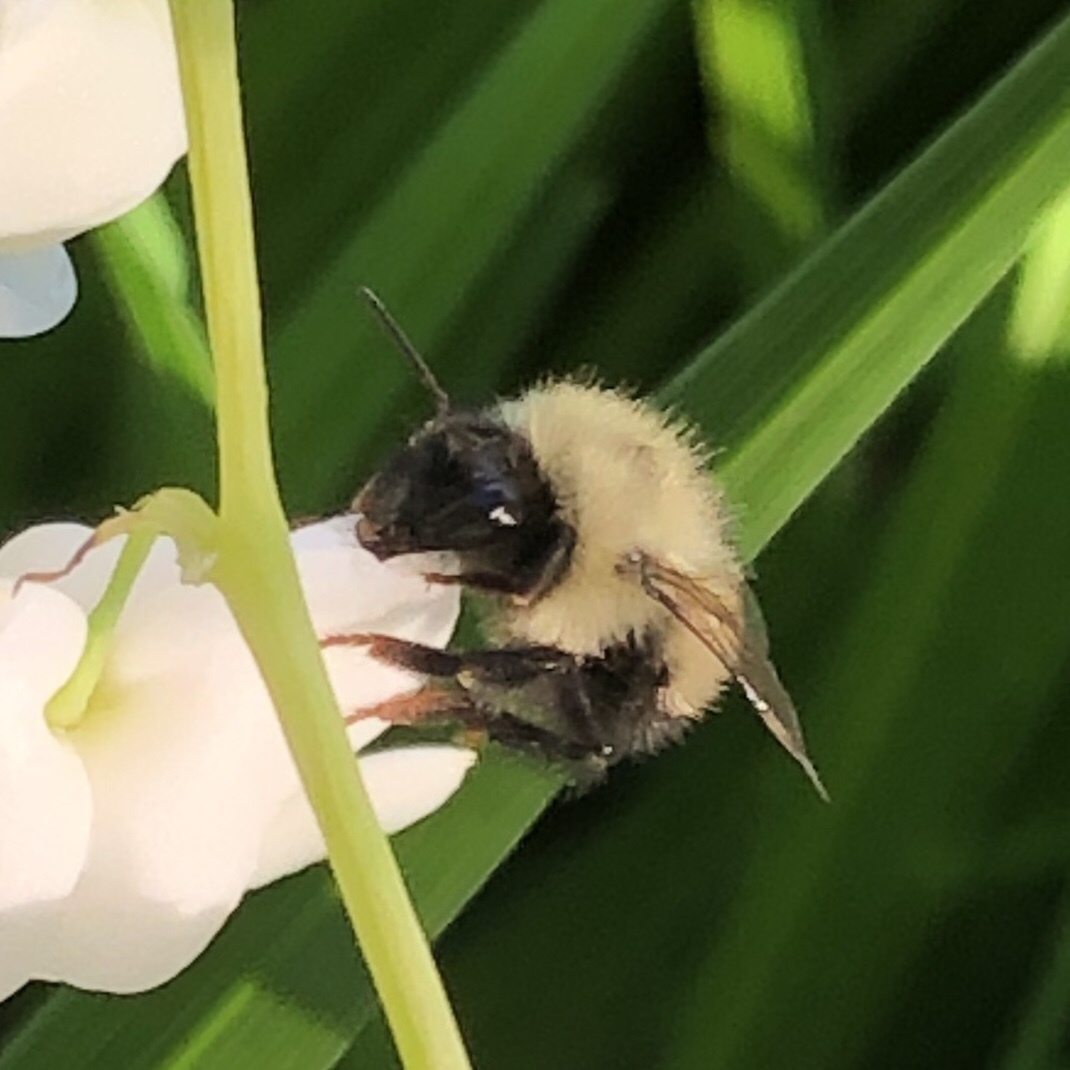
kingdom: Animalia
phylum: Arthropoda
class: Insecta
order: Hymenoptera
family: Apidae
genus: Pyrobombus
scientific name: Pyrobombus
